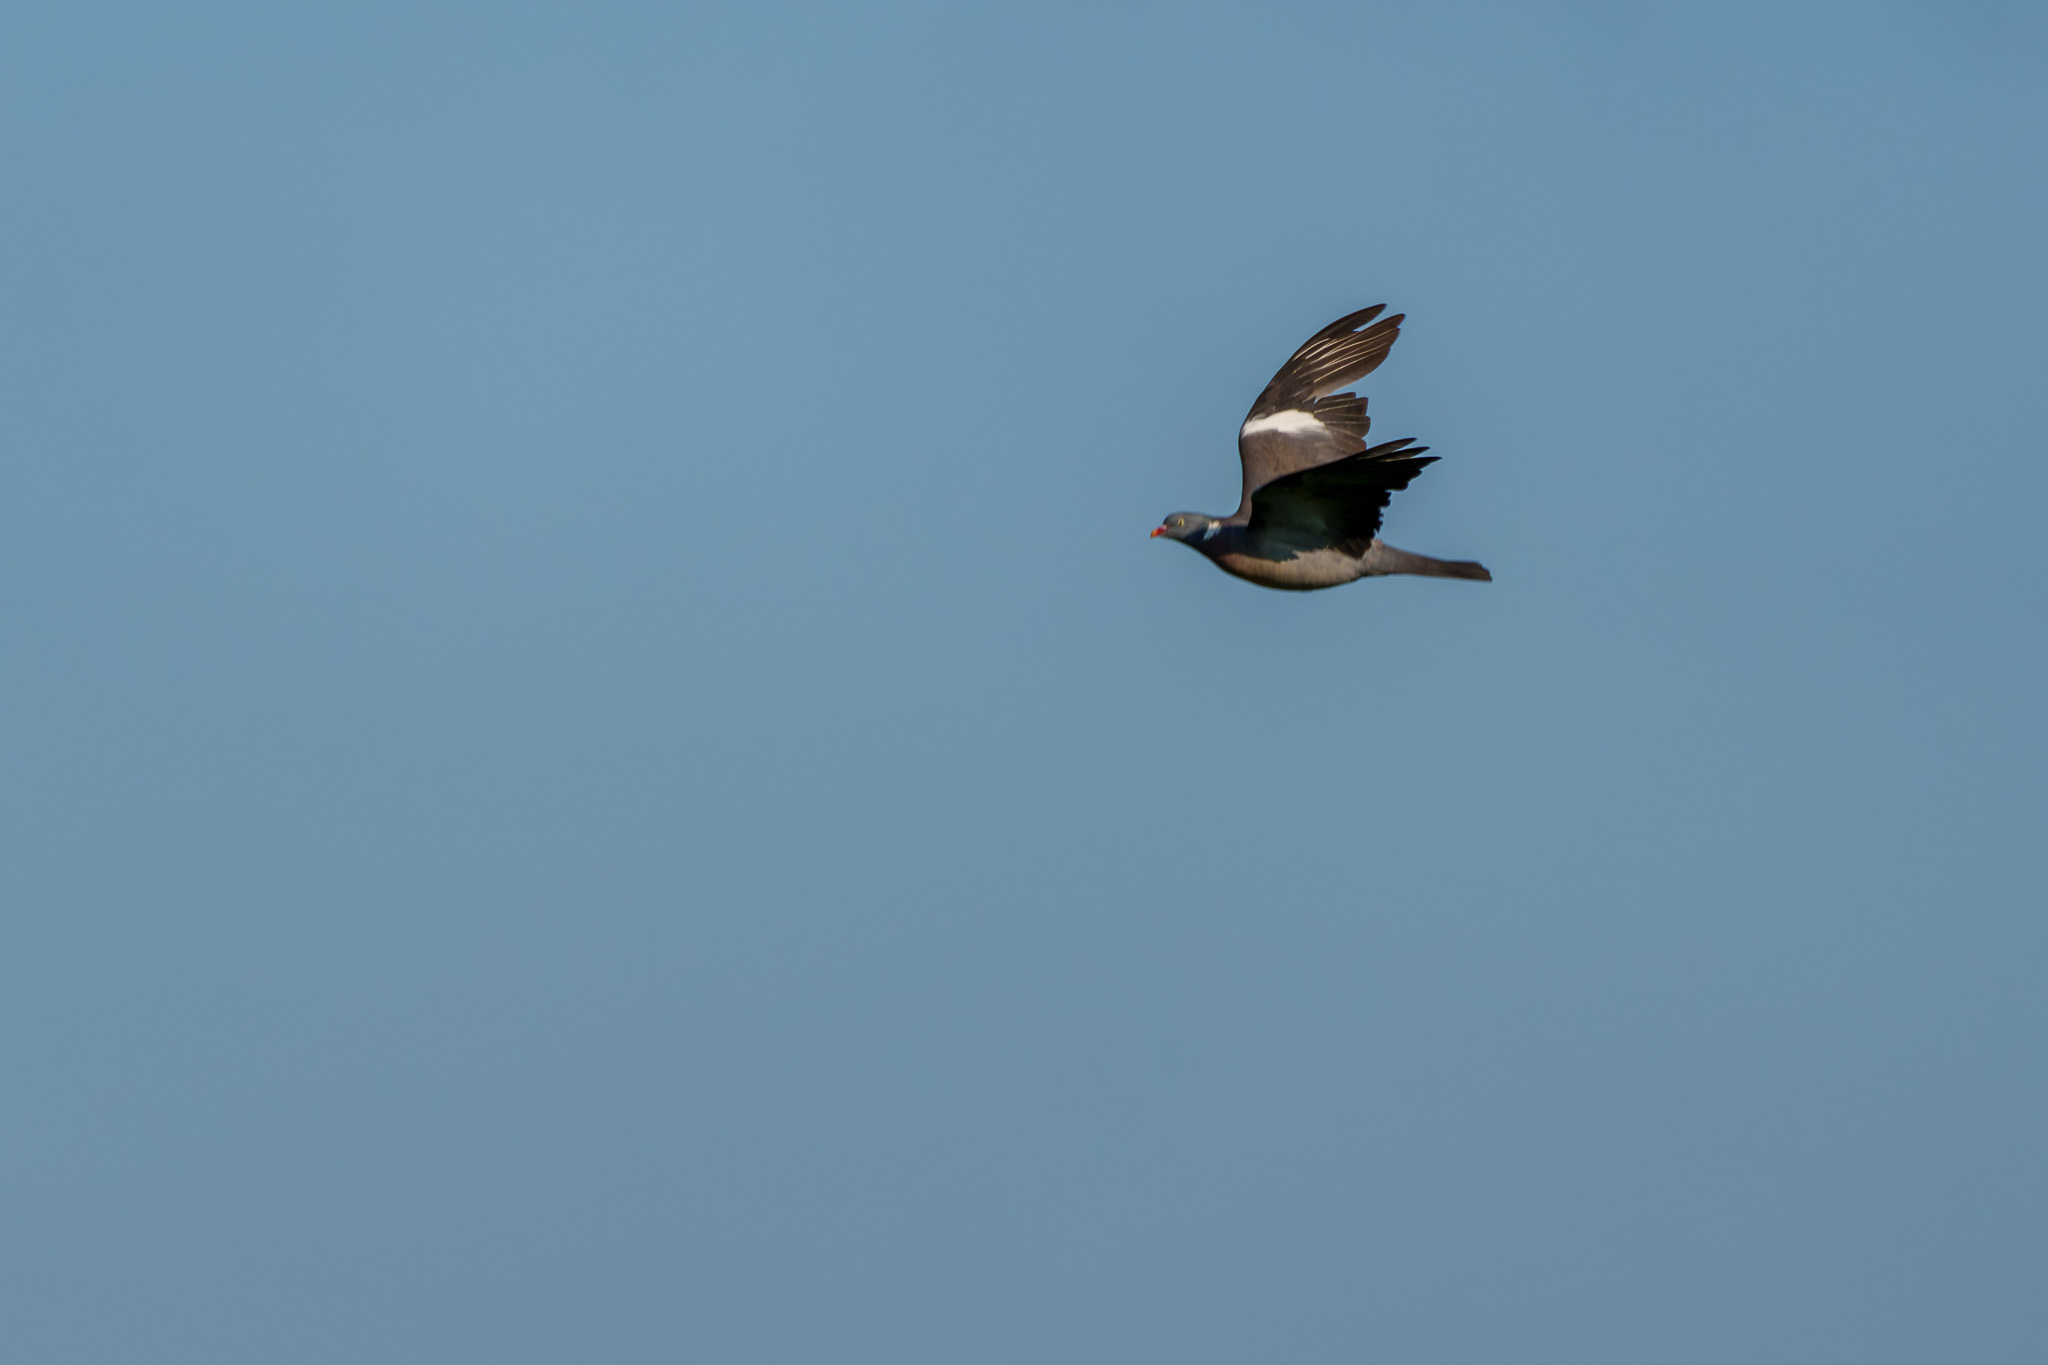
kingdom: Animalia
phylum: Chordata
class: Aves
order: Columbiformes
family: Columbidae
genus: Columba
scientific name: Columba palumbus
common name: Common wood pigeon
